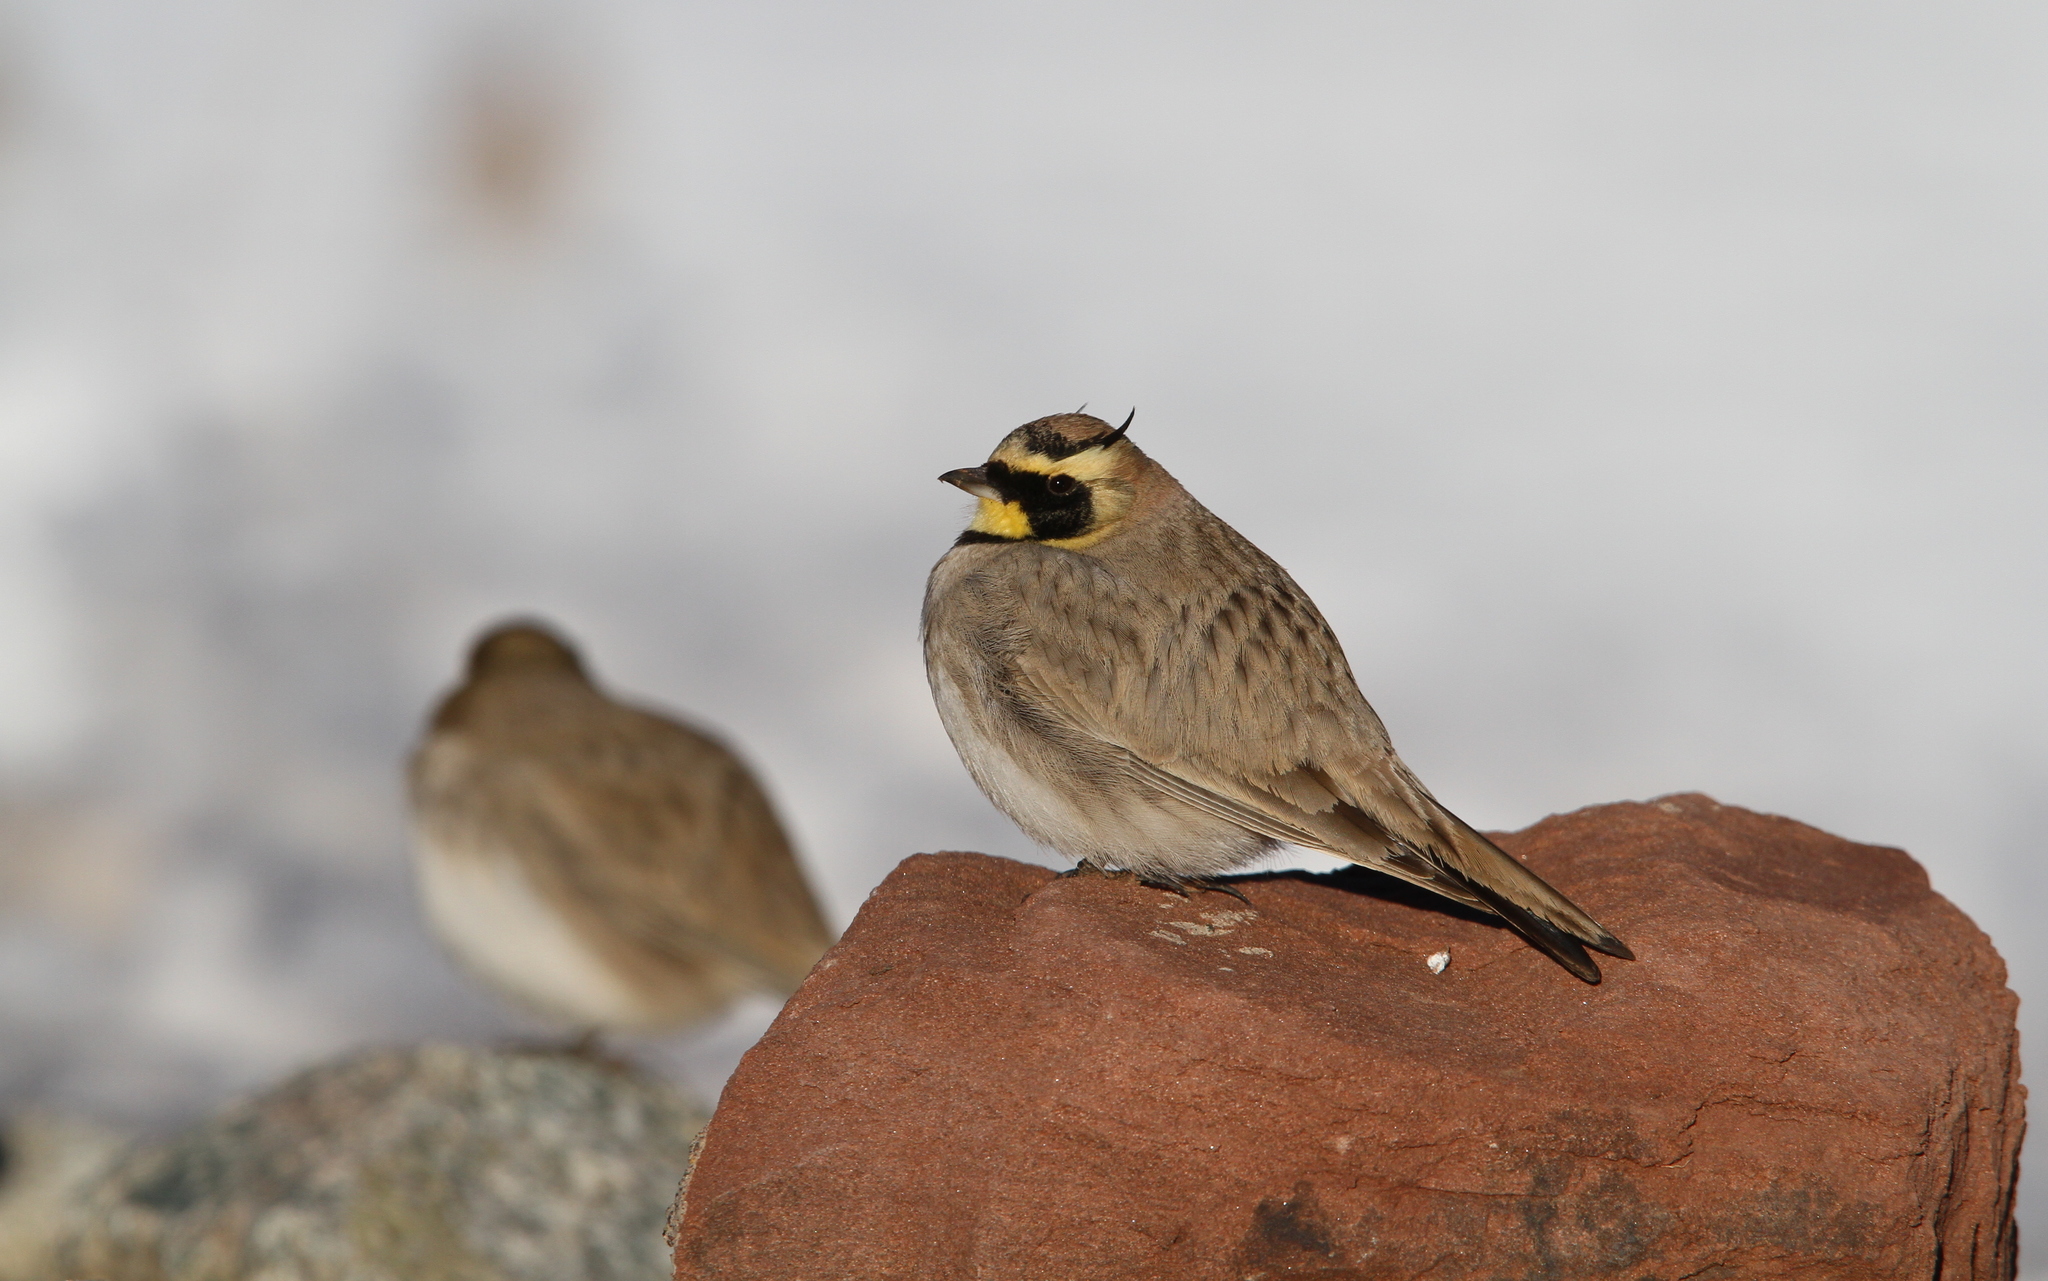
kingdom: Animalia
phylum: Chordata
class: Aves
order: Passeriformes
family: Alaudidae
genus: Eremophila
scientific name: Eremophila alpestris
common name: Horned lark
